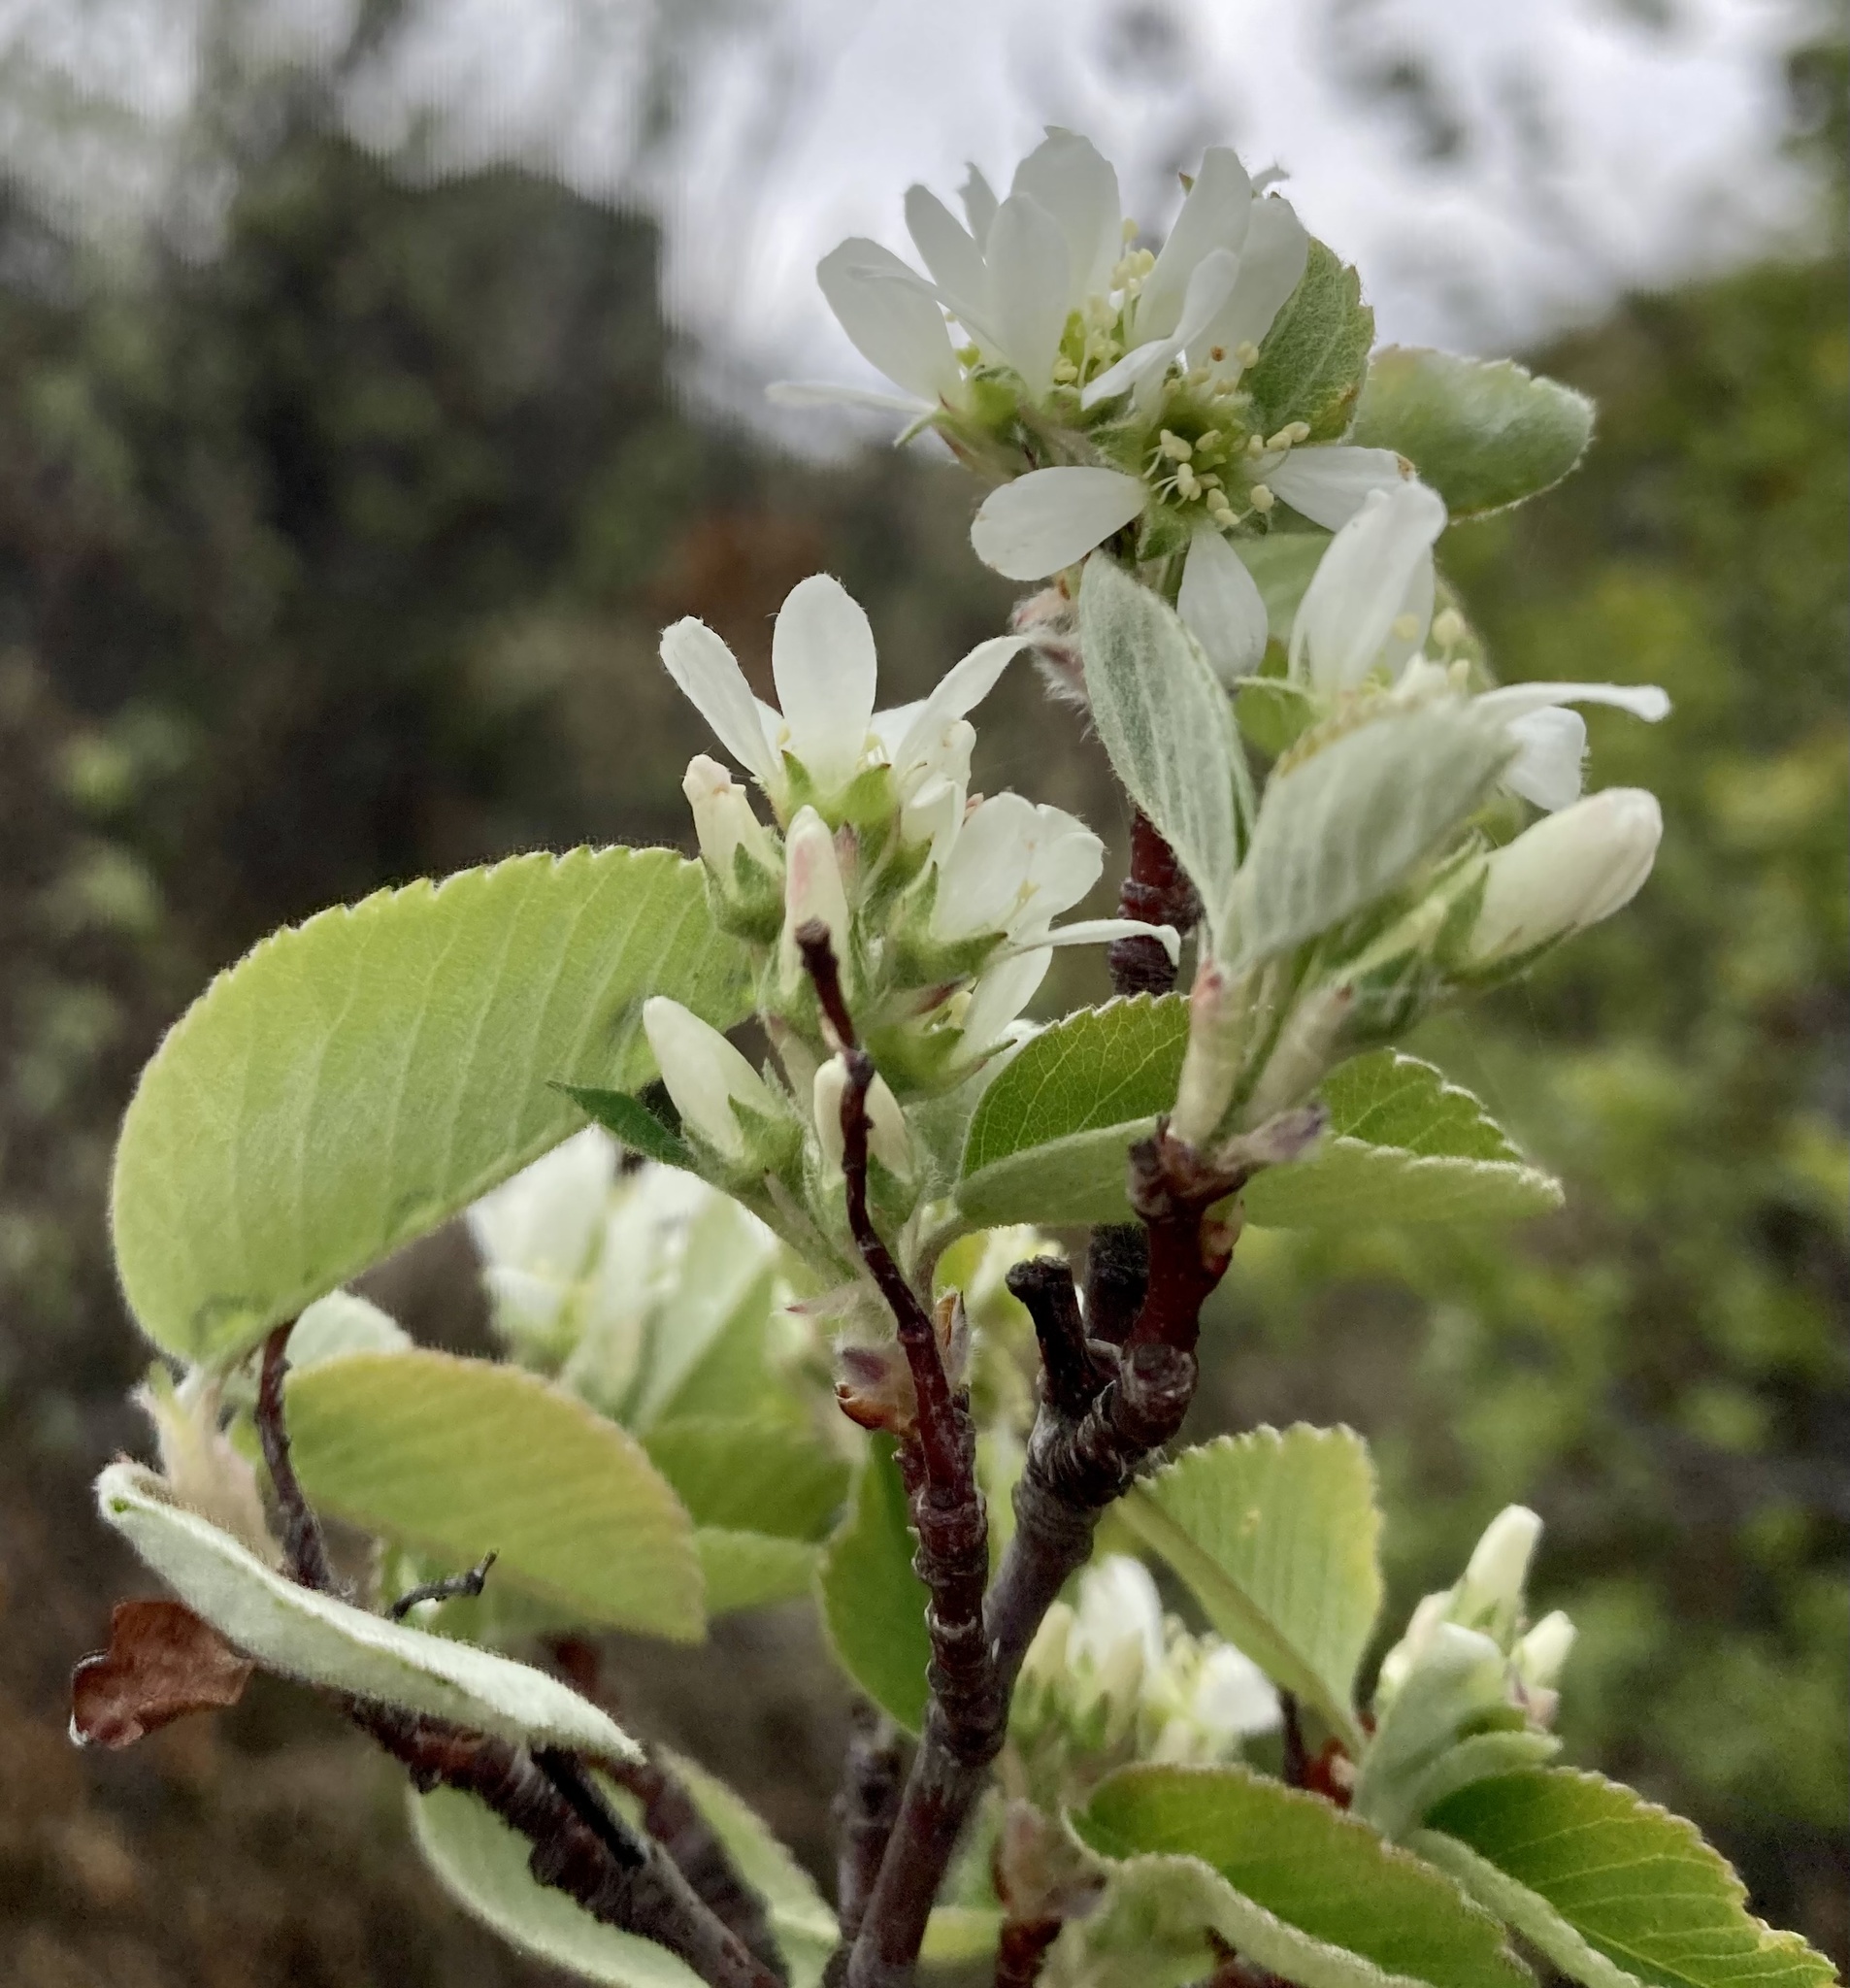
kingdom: Plantae
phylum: Tracheophyta
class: Magnoliopsida
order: Rosales
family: Rosaceae
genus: Amelanchier
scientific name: Amelanchier alnifolia
